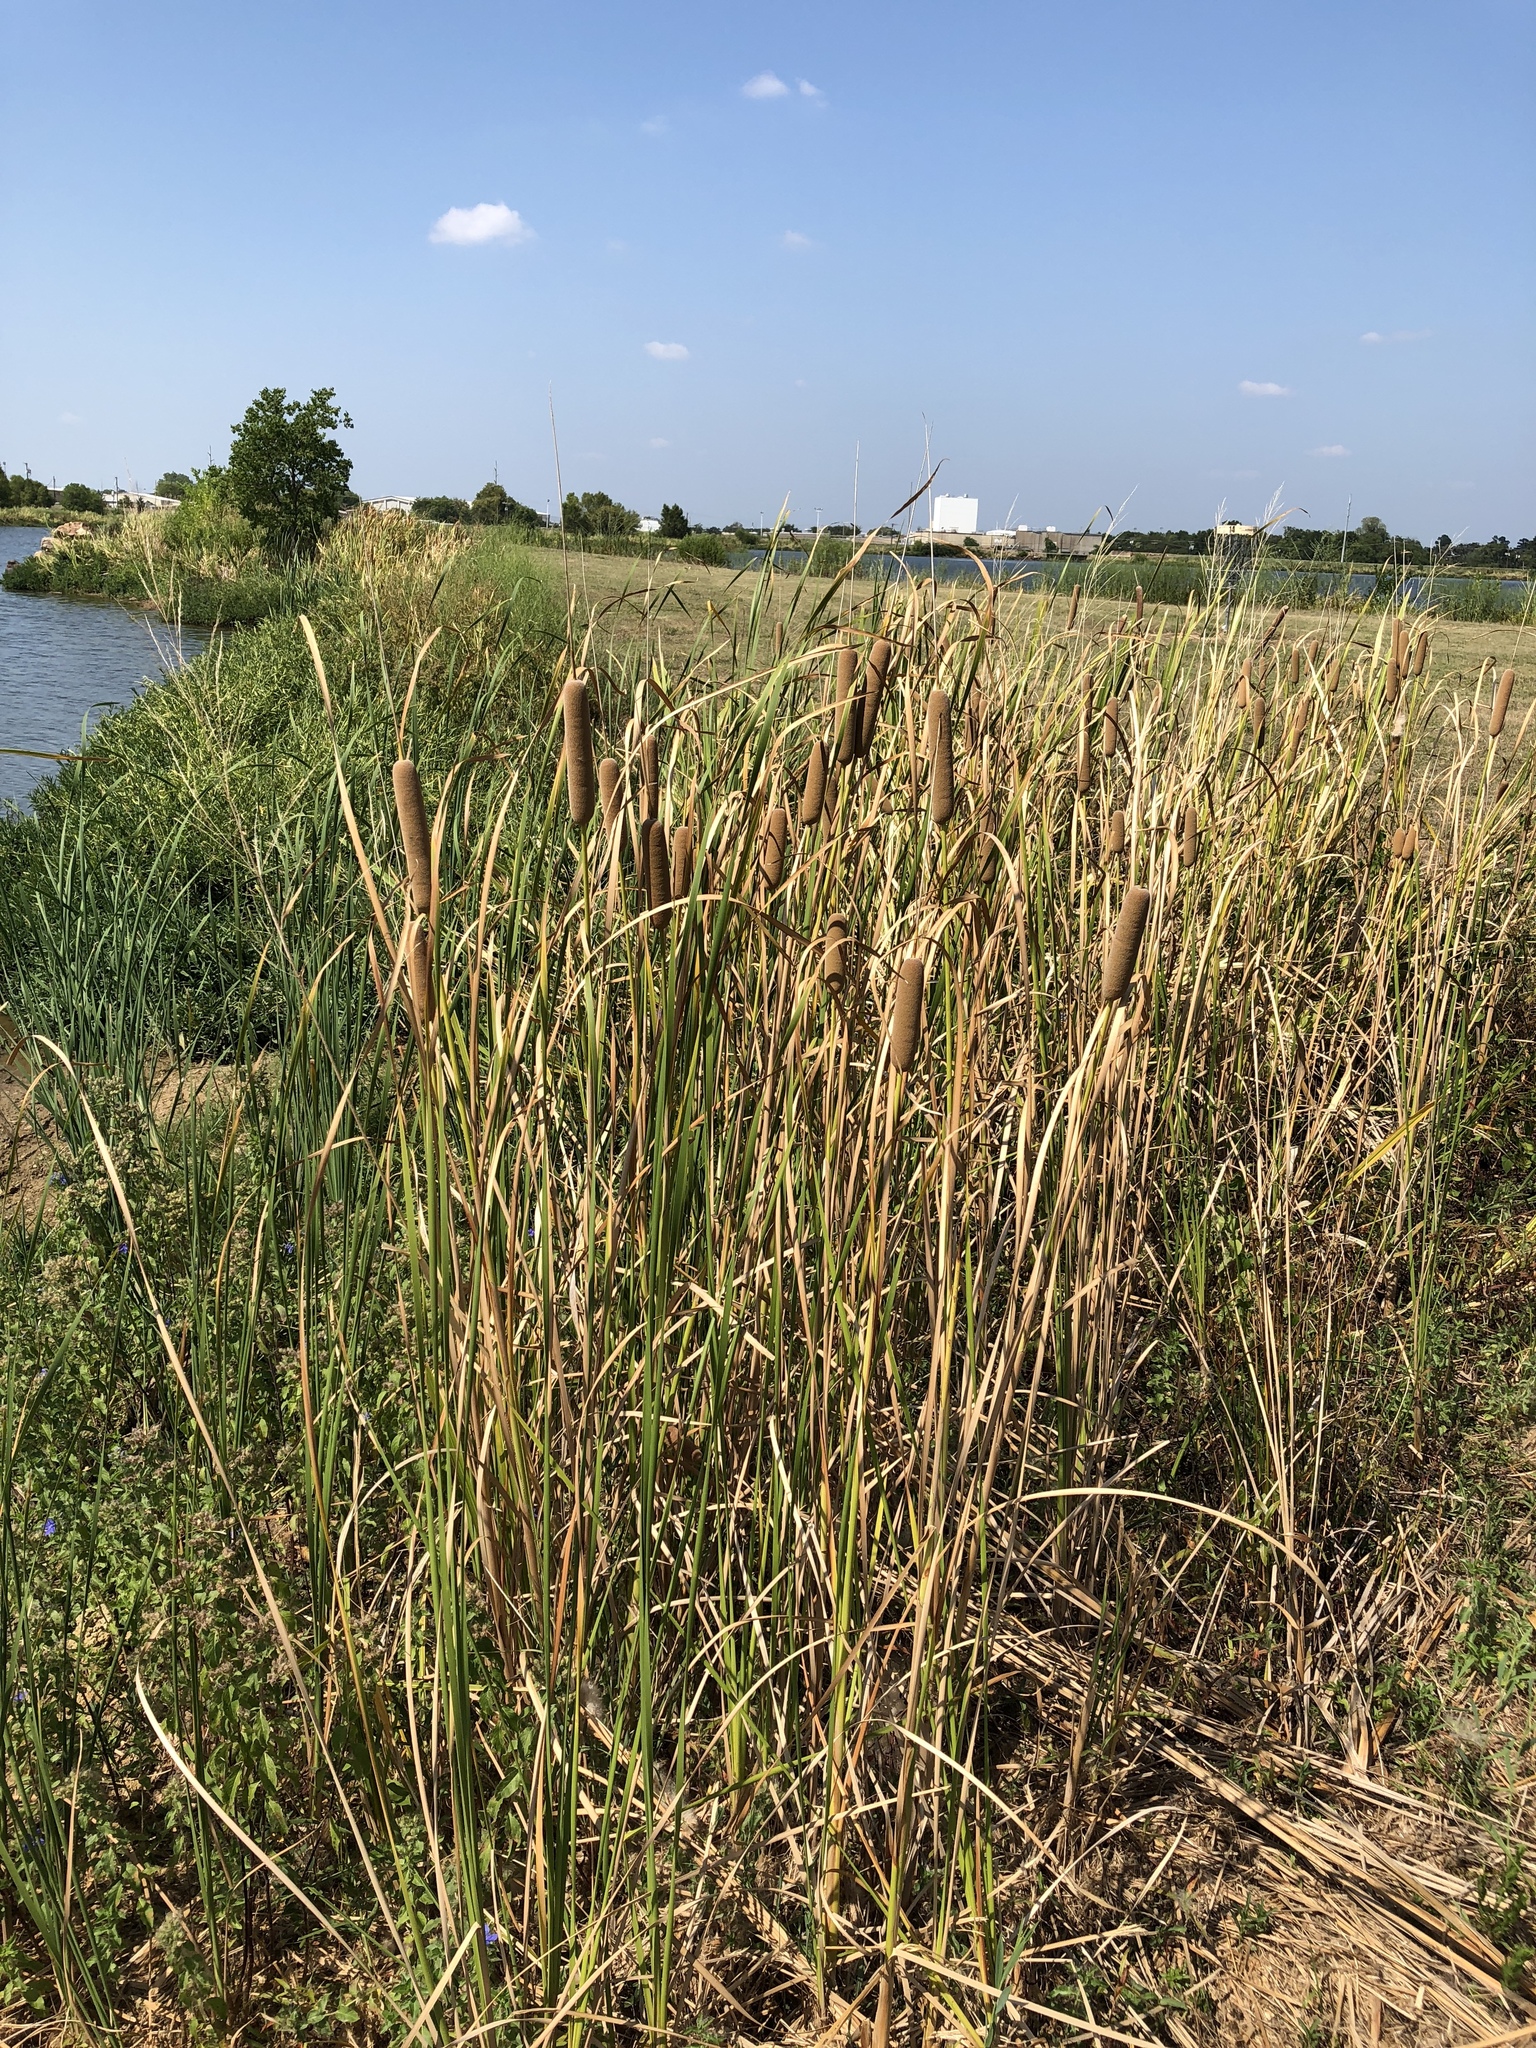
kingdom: Plantae
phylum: Tracheophyta
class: Liliopsida
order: Poales
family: Typhaceae
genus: Typha
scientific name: Typha domingensis
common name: Southern cattail
